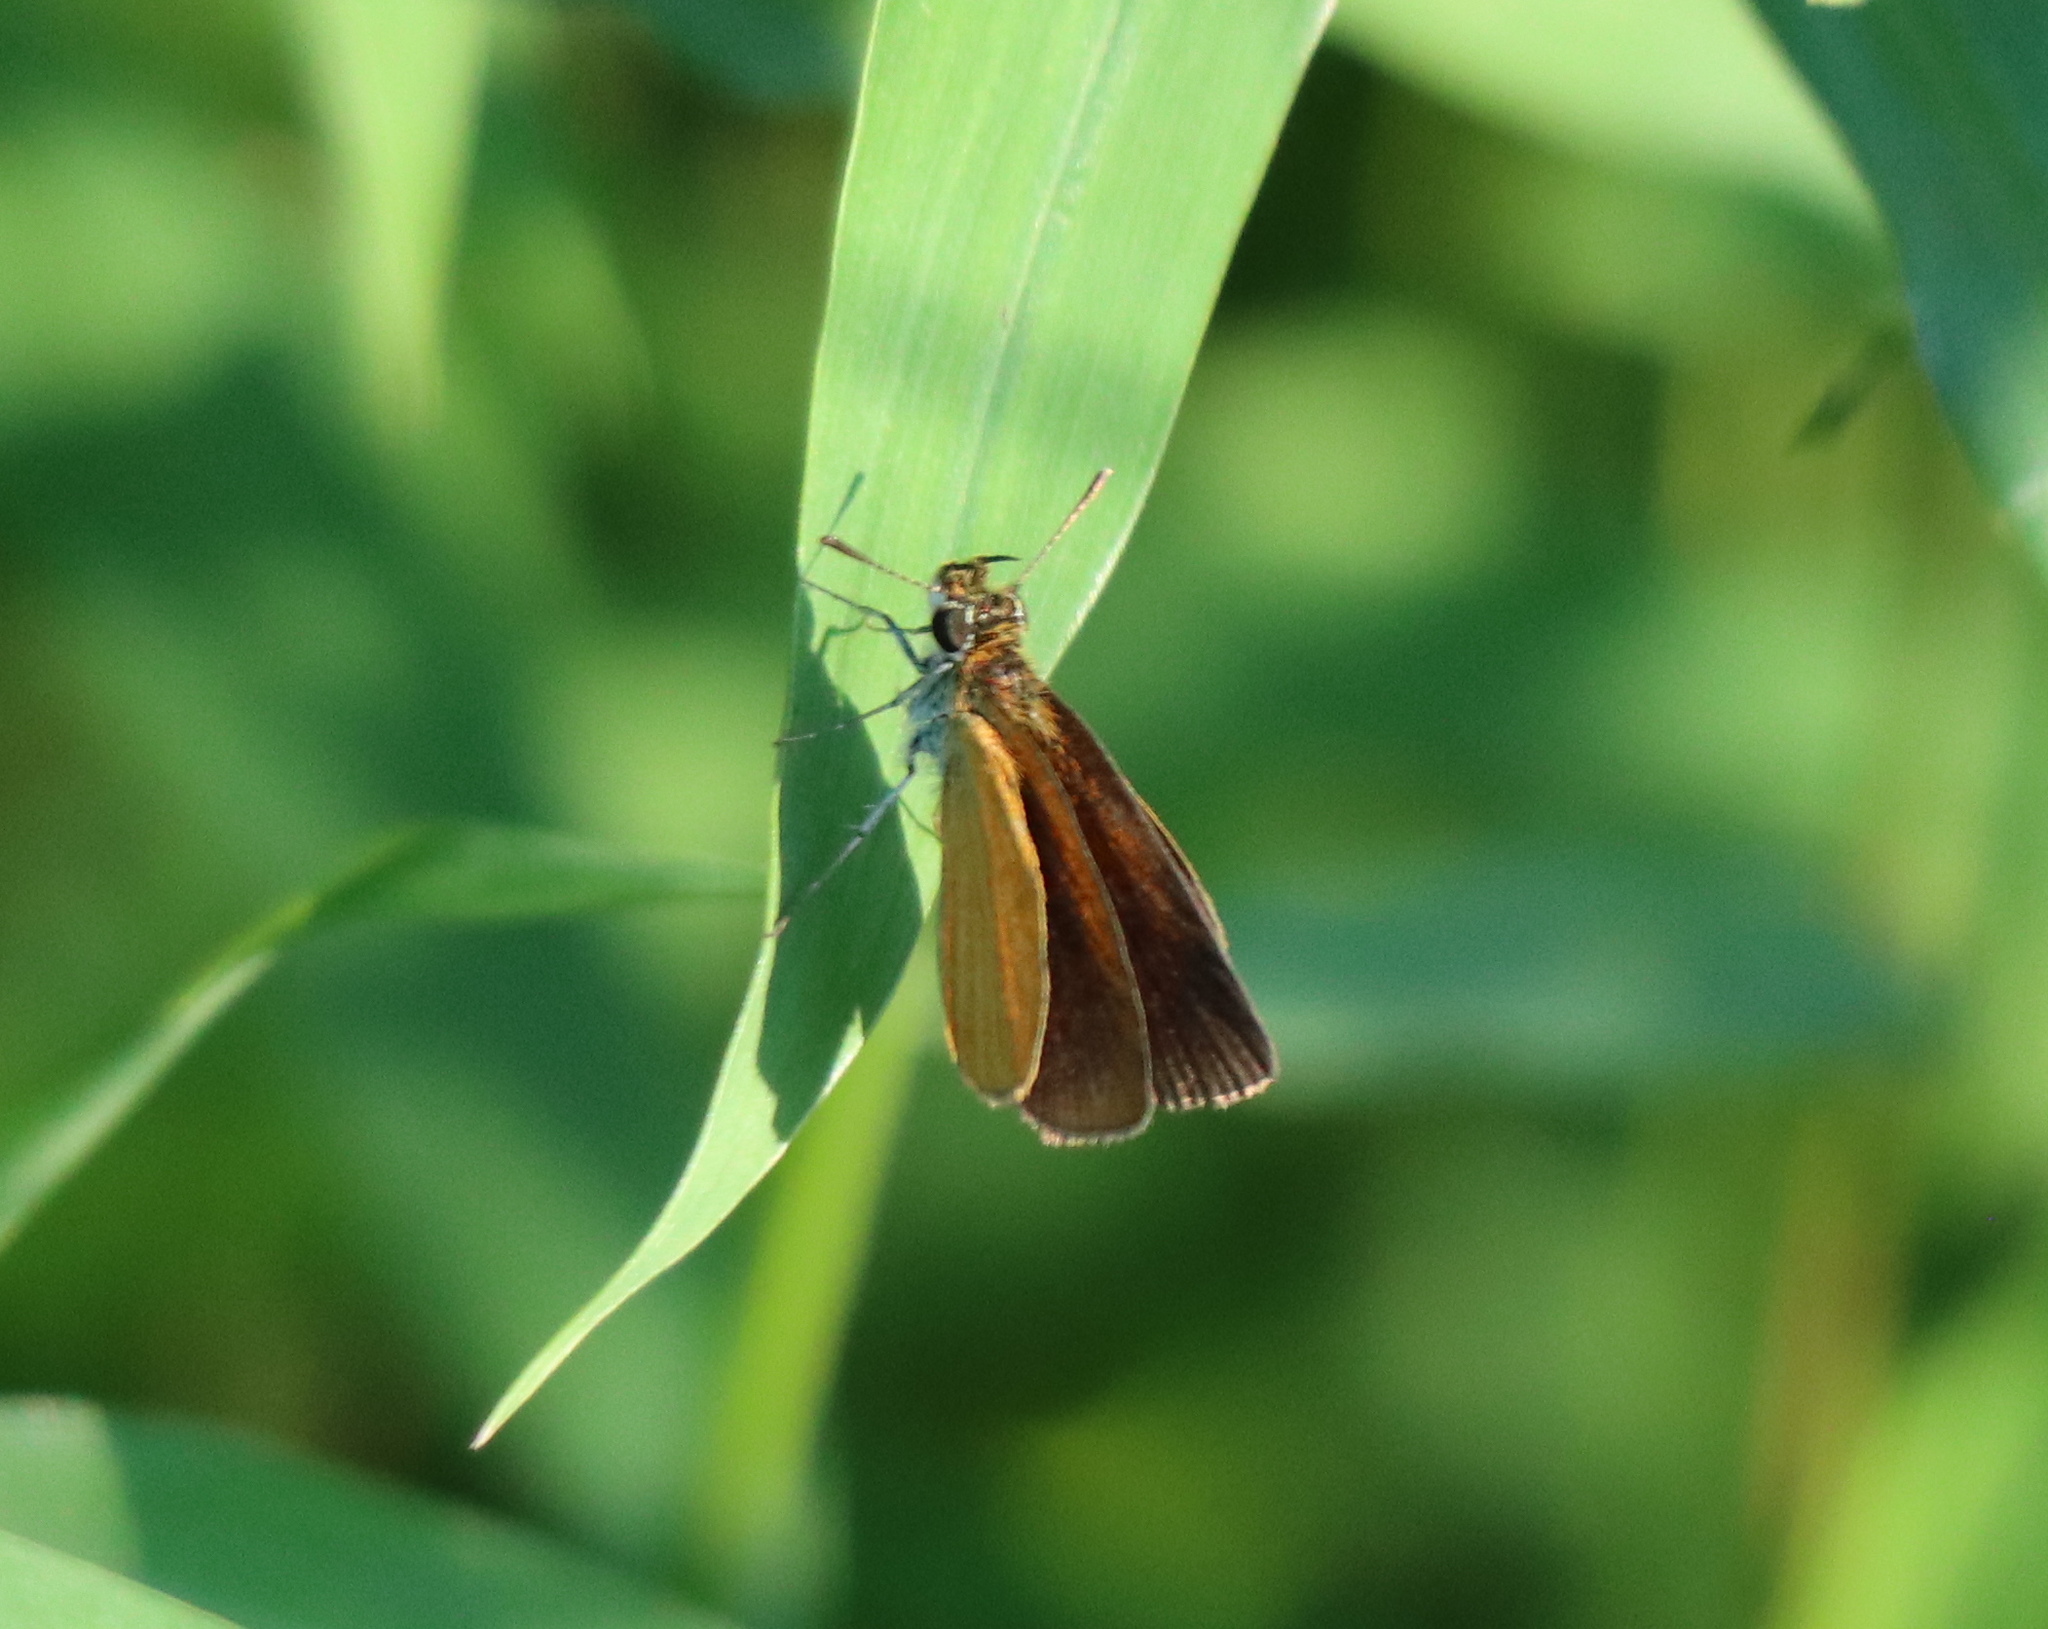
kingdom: Animalia
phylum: Arthropoda
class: Insecta
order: Lepidoptera
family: Hesperiidae
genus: Ancyloxypha
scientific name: Ancyloxypha numitor
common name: Least skipper
